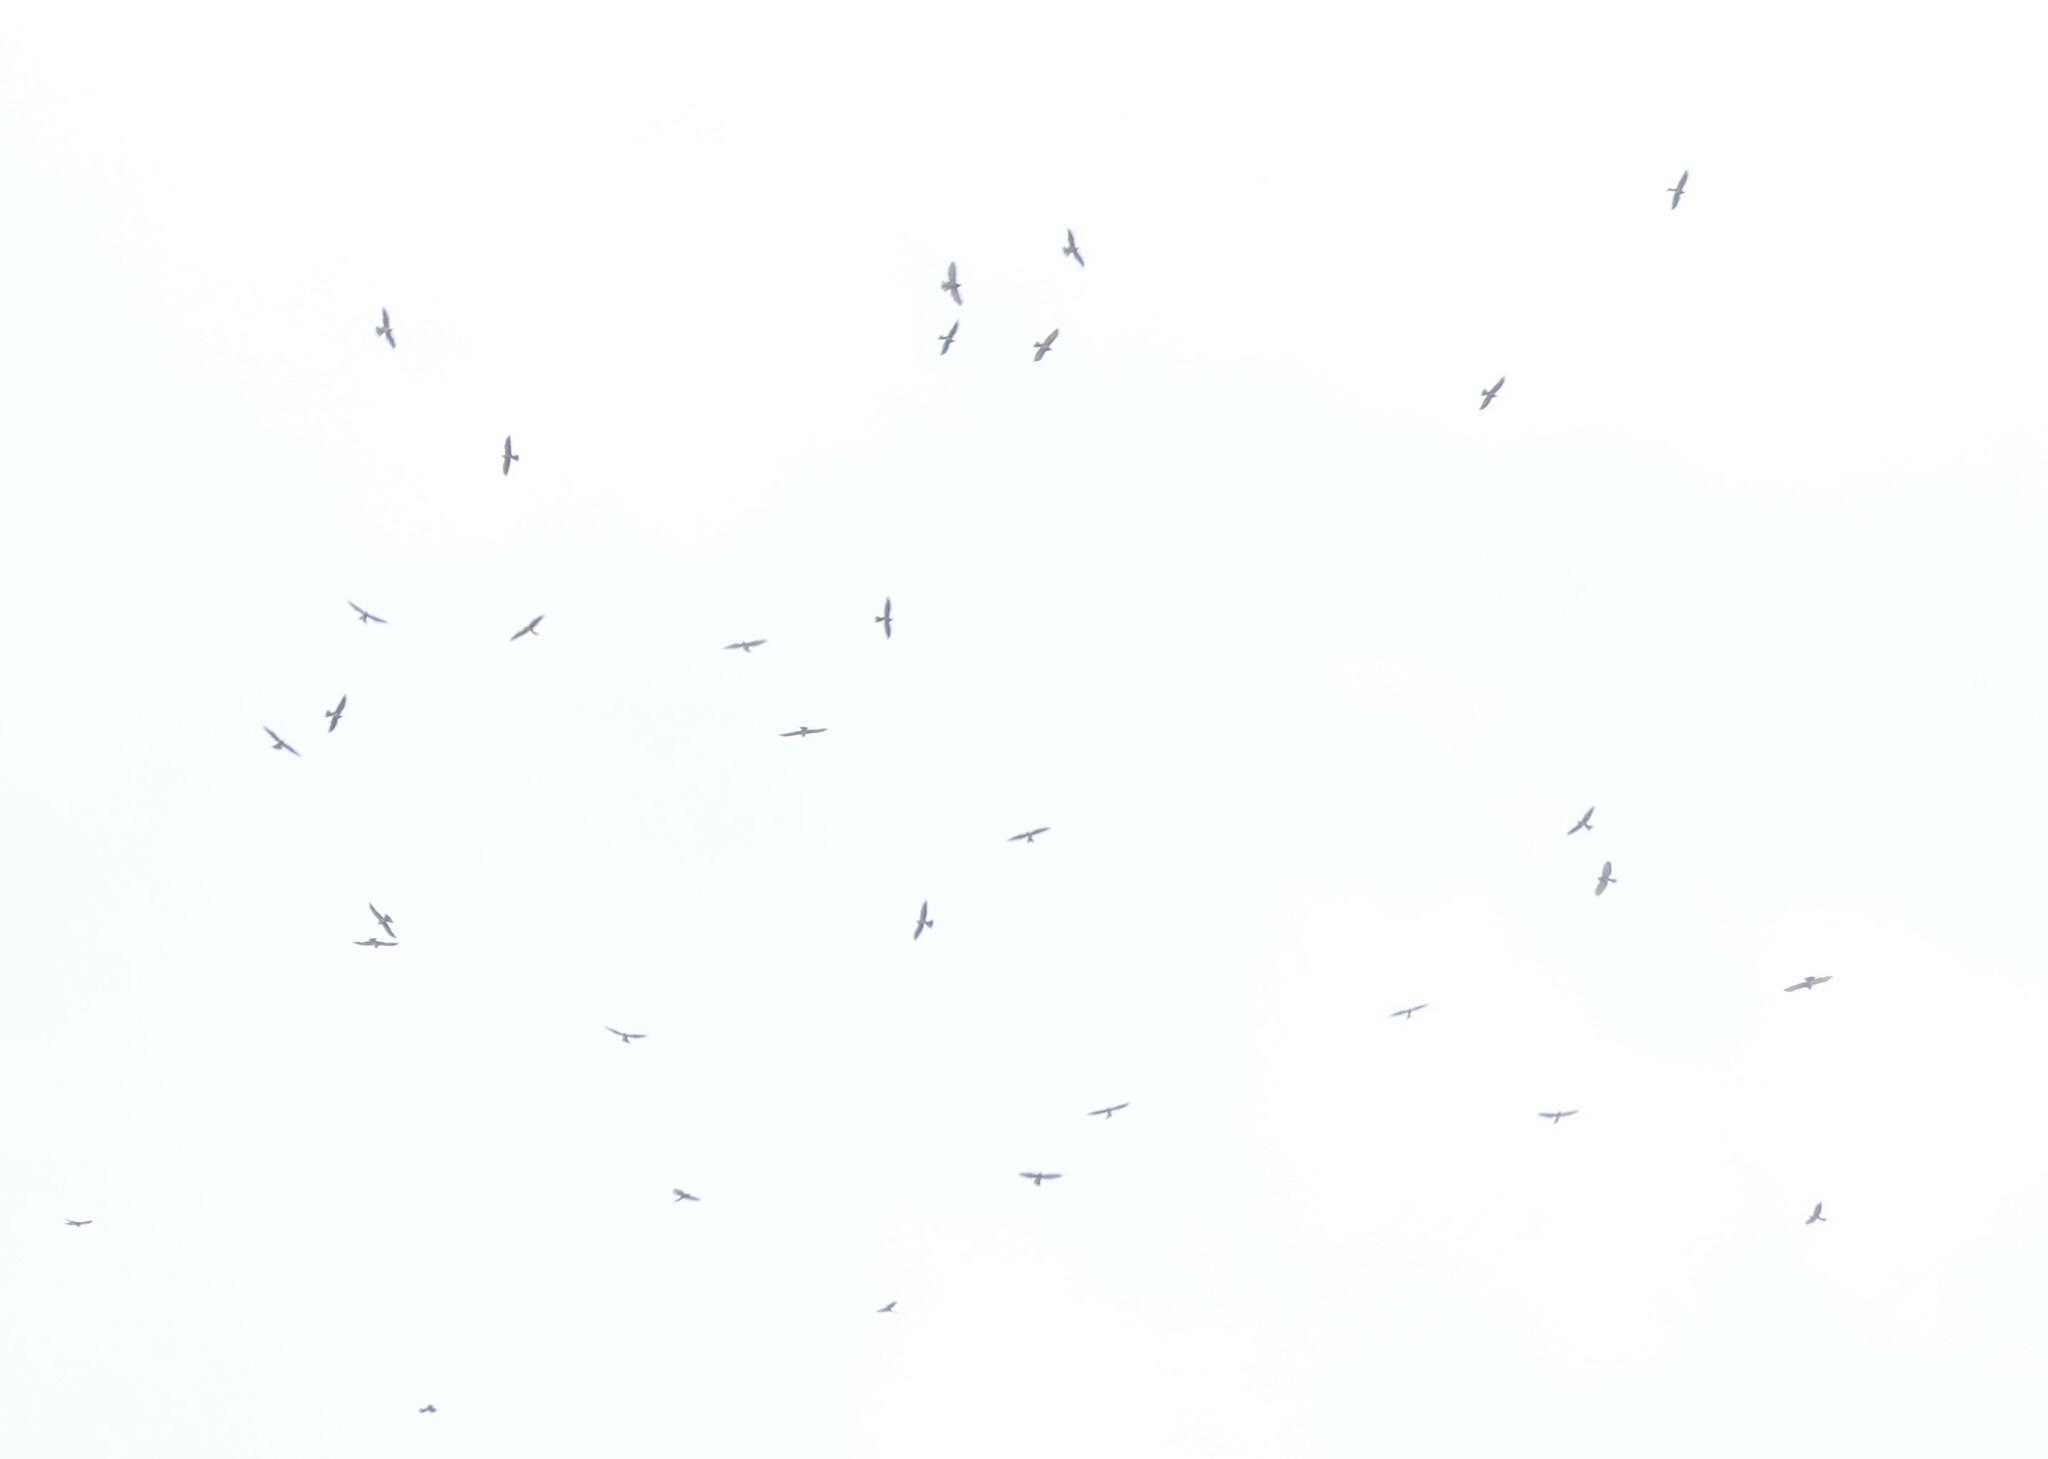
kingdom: Animalia
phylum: Chordata
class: Aves
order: Accipitriformes
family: Accipitridae
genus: Ictinia
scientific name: Ictinia mississippiensis
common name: Mississippi kite
